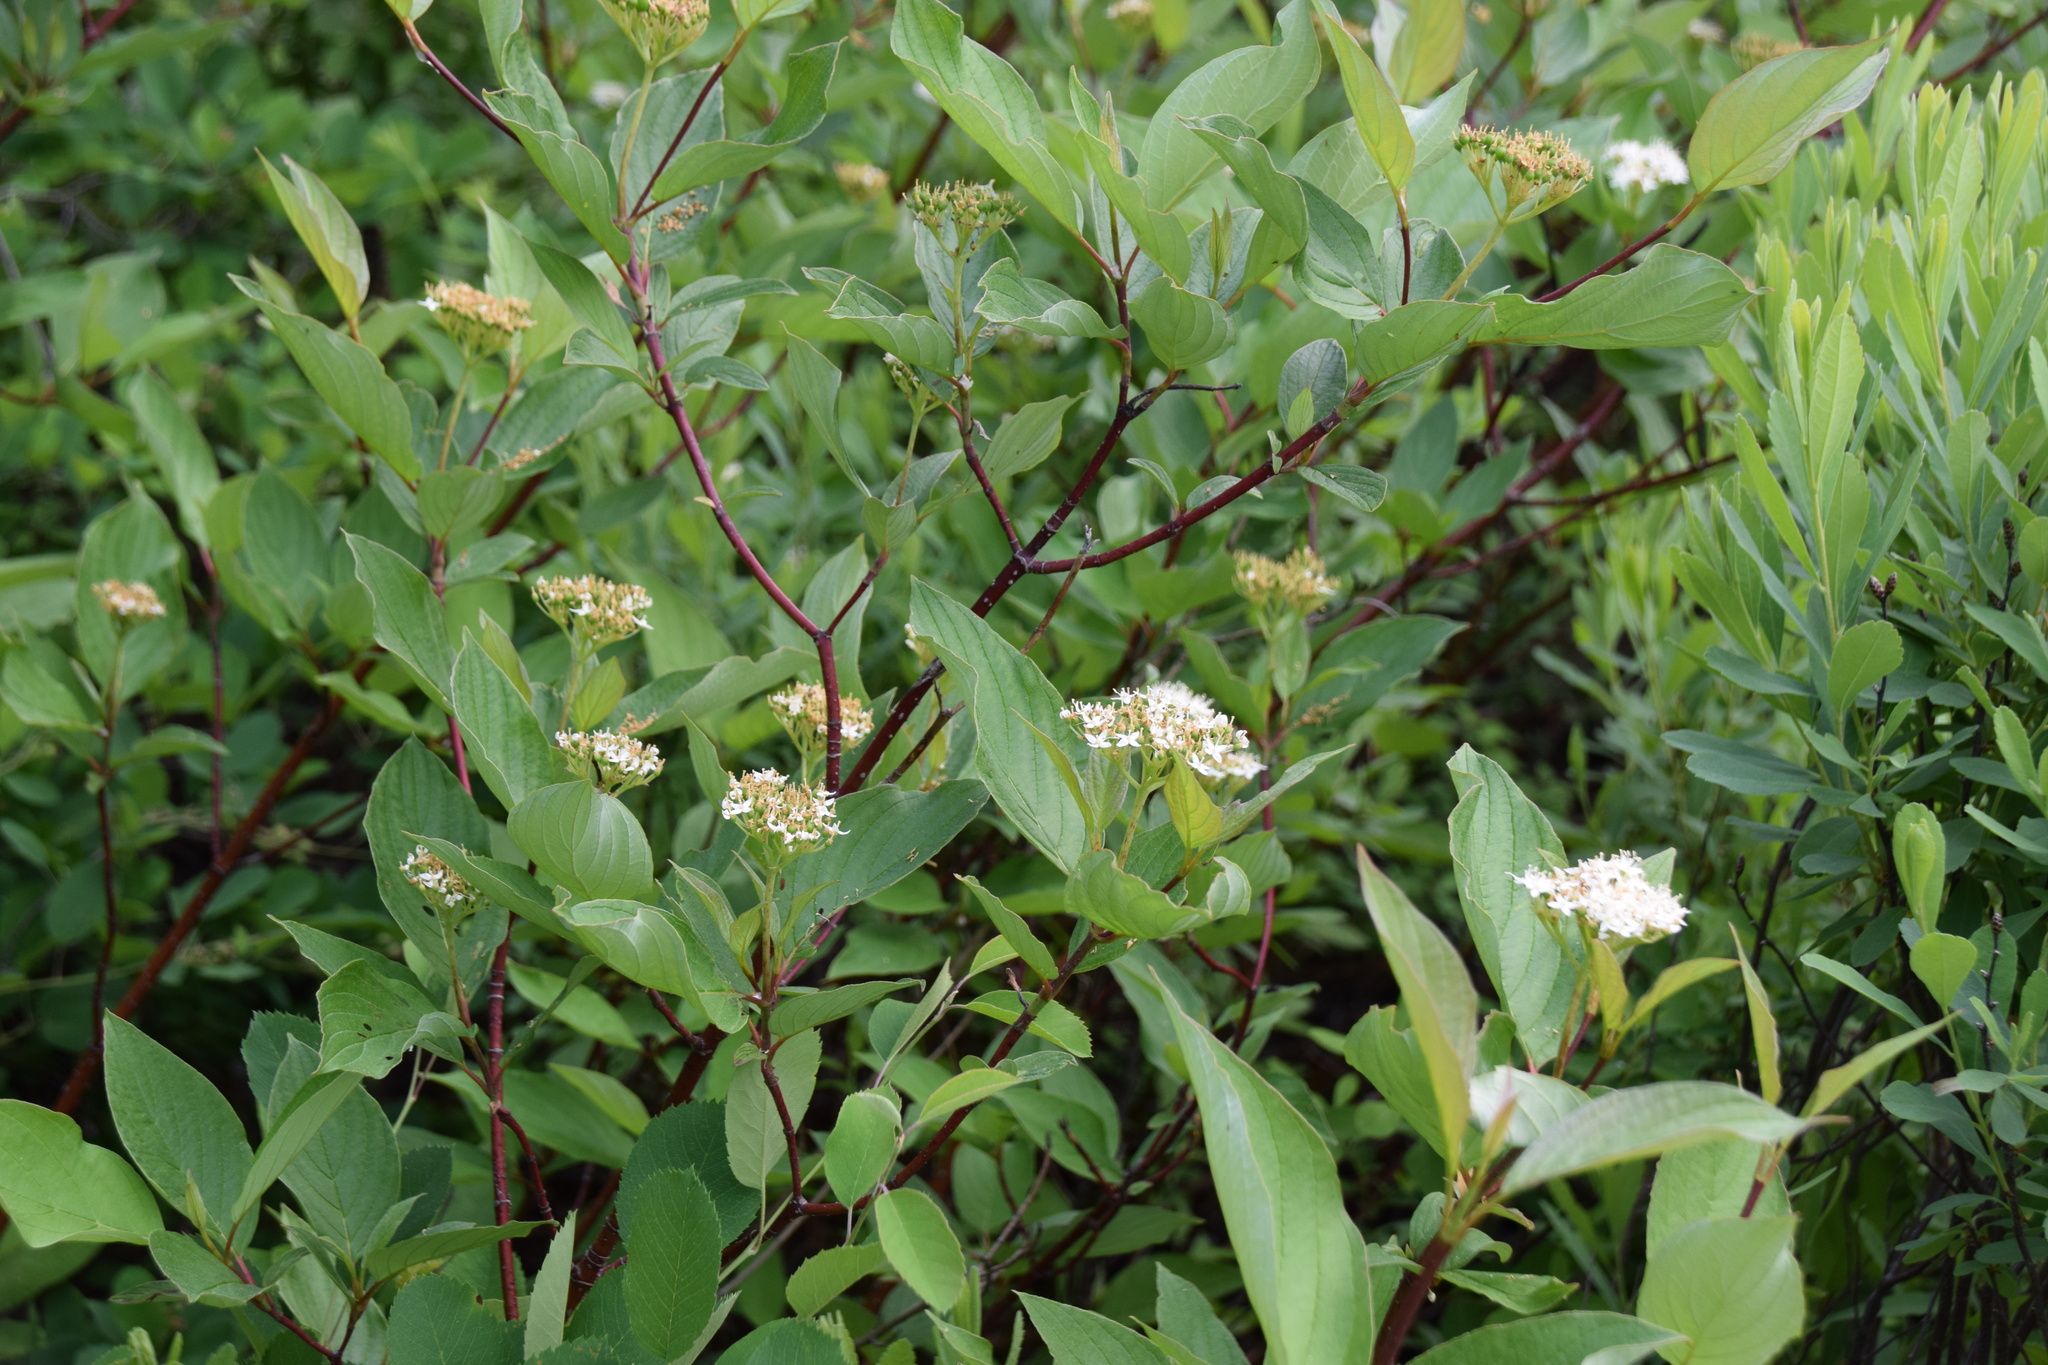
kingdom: Plantae
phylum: Tracheophyta
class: Magnoliopsida
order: Cornales
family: Cornaceae
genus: Cornus
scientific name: Cornus sericea
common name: Red-osier dogwood
